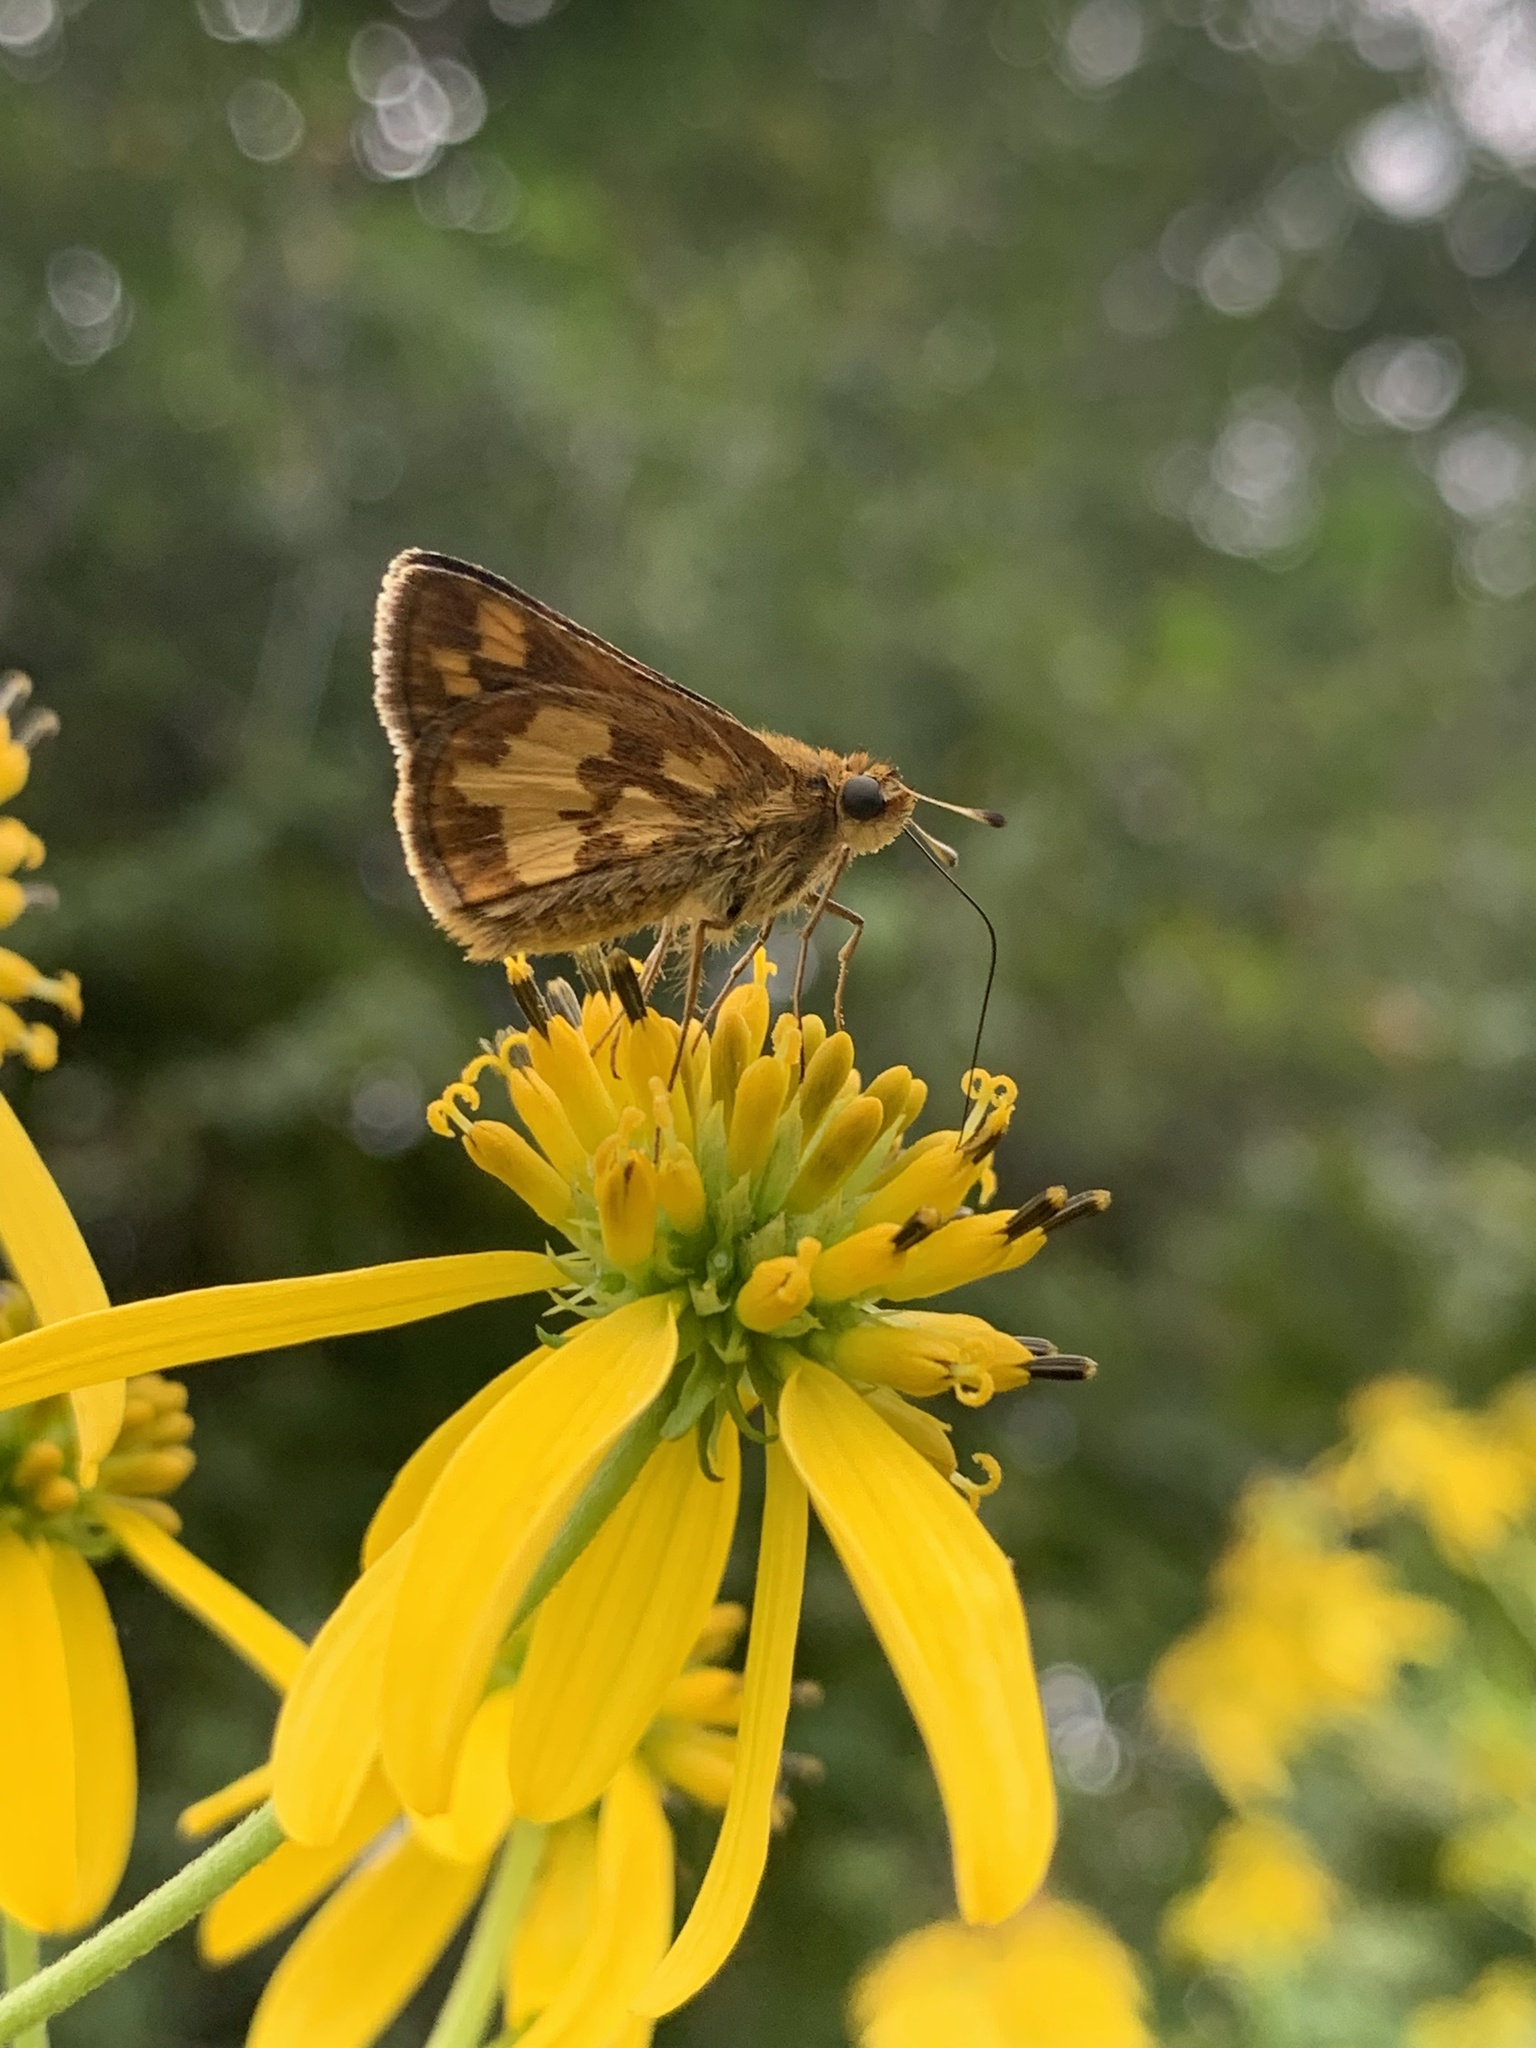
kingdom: Animalia
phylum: Arthropoda
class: Insecta
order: Lepidoptera
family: Hesperiidae
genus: Polites
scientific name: Polites coras
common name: Peck's skipper
